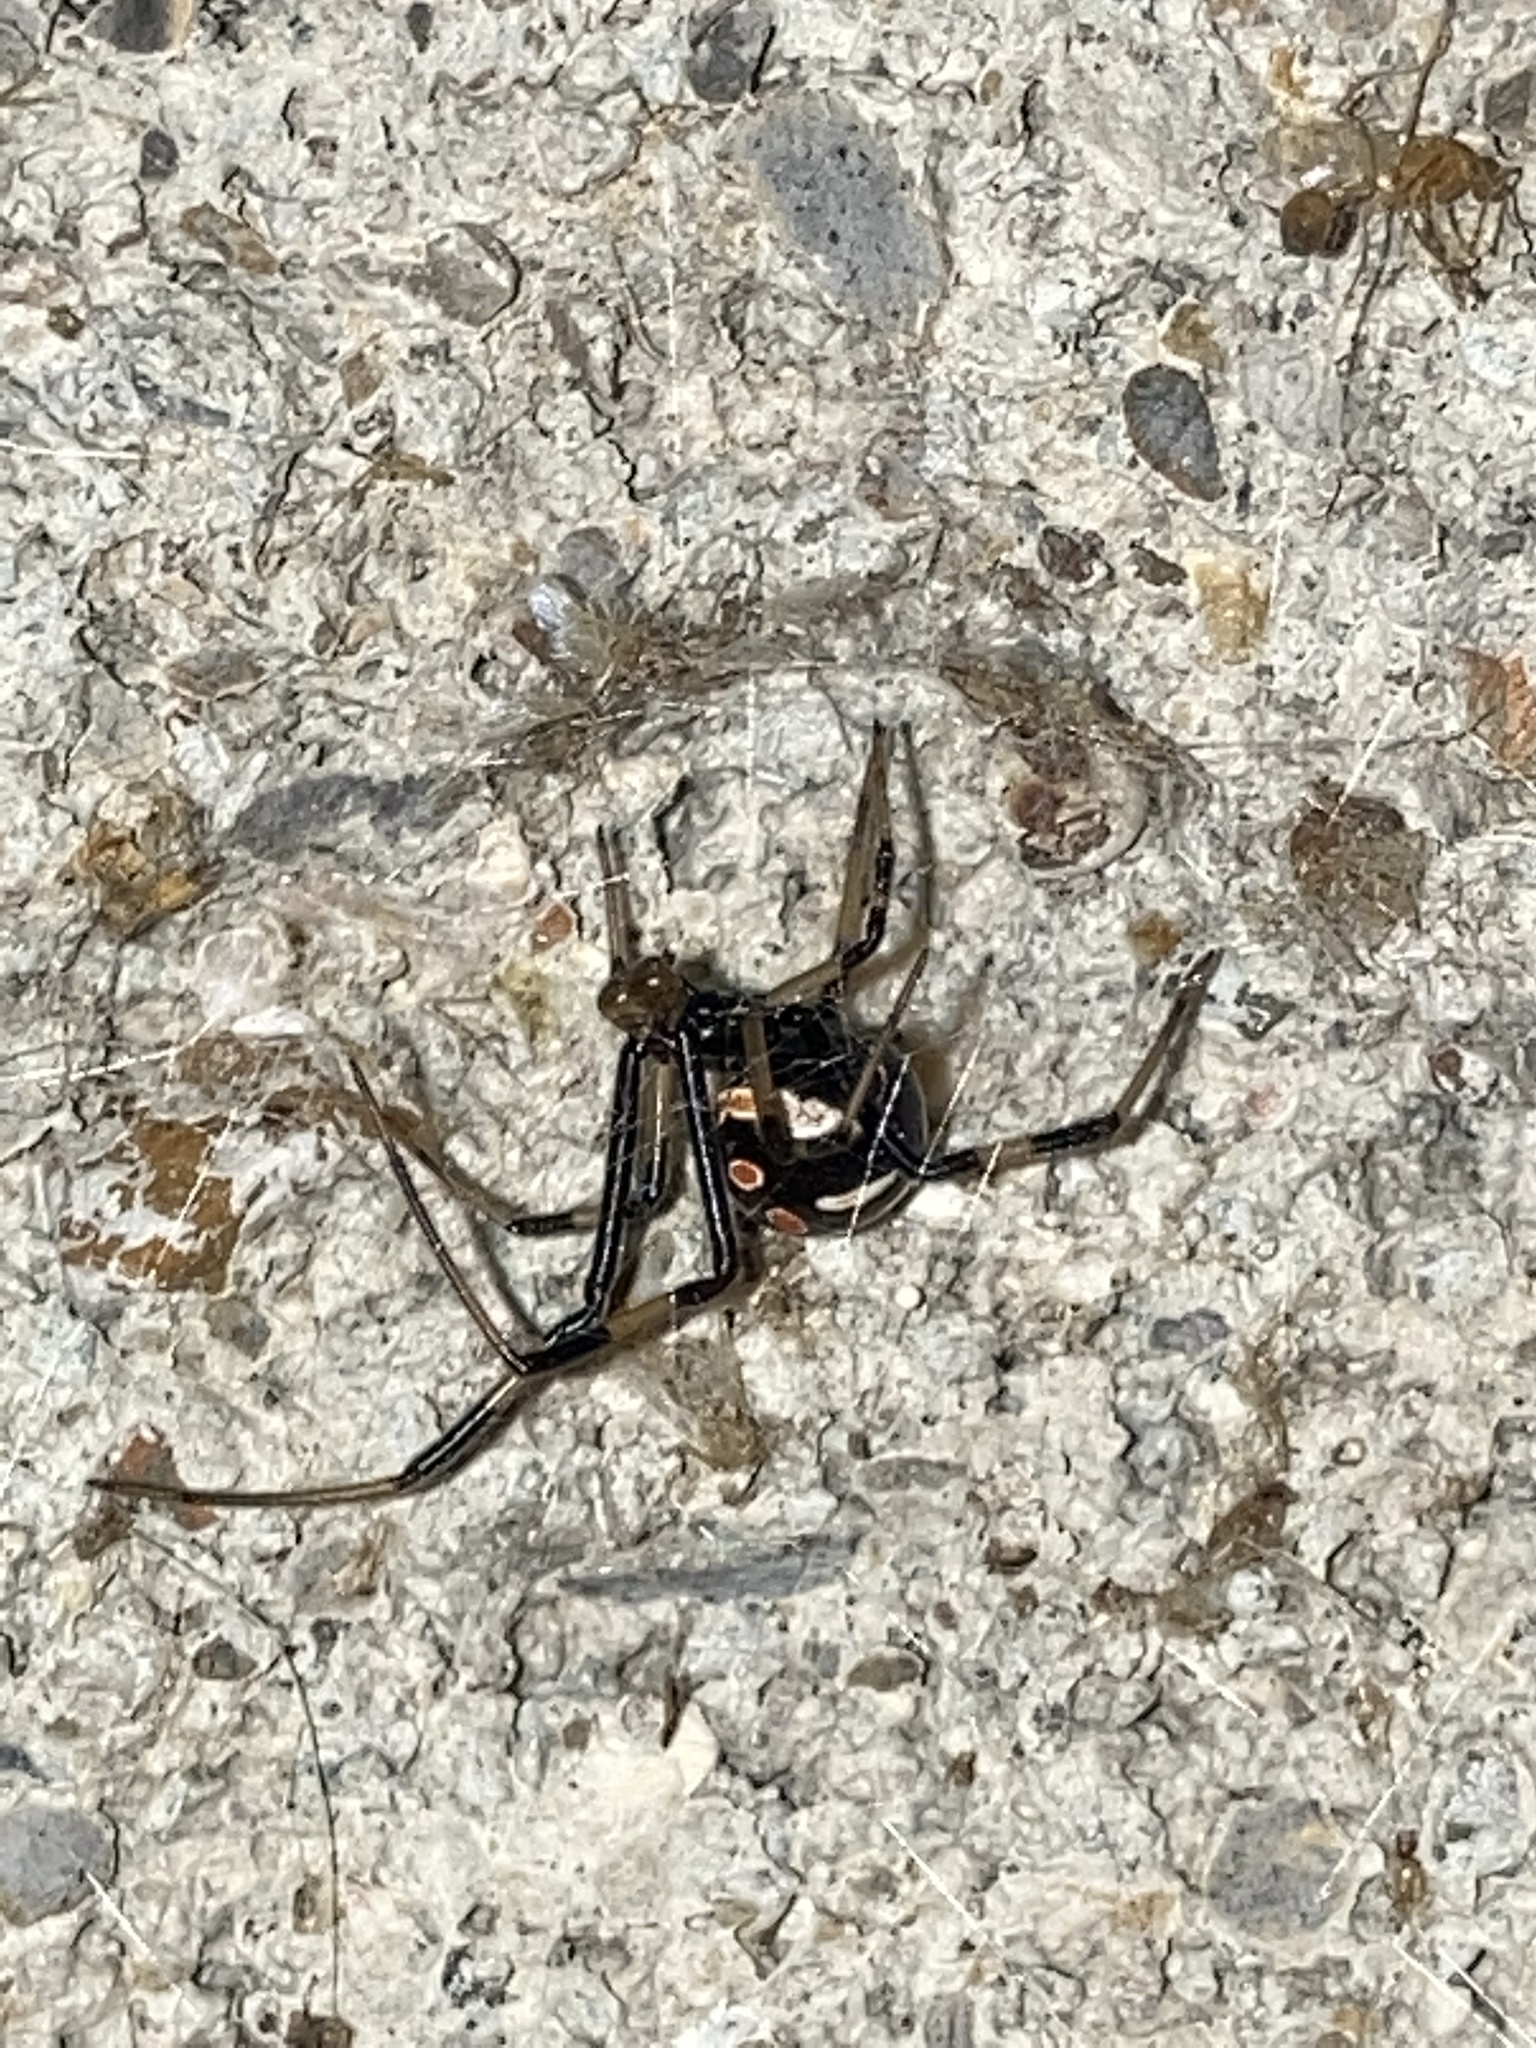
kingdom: Animalia
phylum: Arthropoda
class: Arachnida
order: Araneae
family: Theridiidae
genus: Latrodectus
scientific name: Latrodectus mactans
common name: Cobweb spiders
